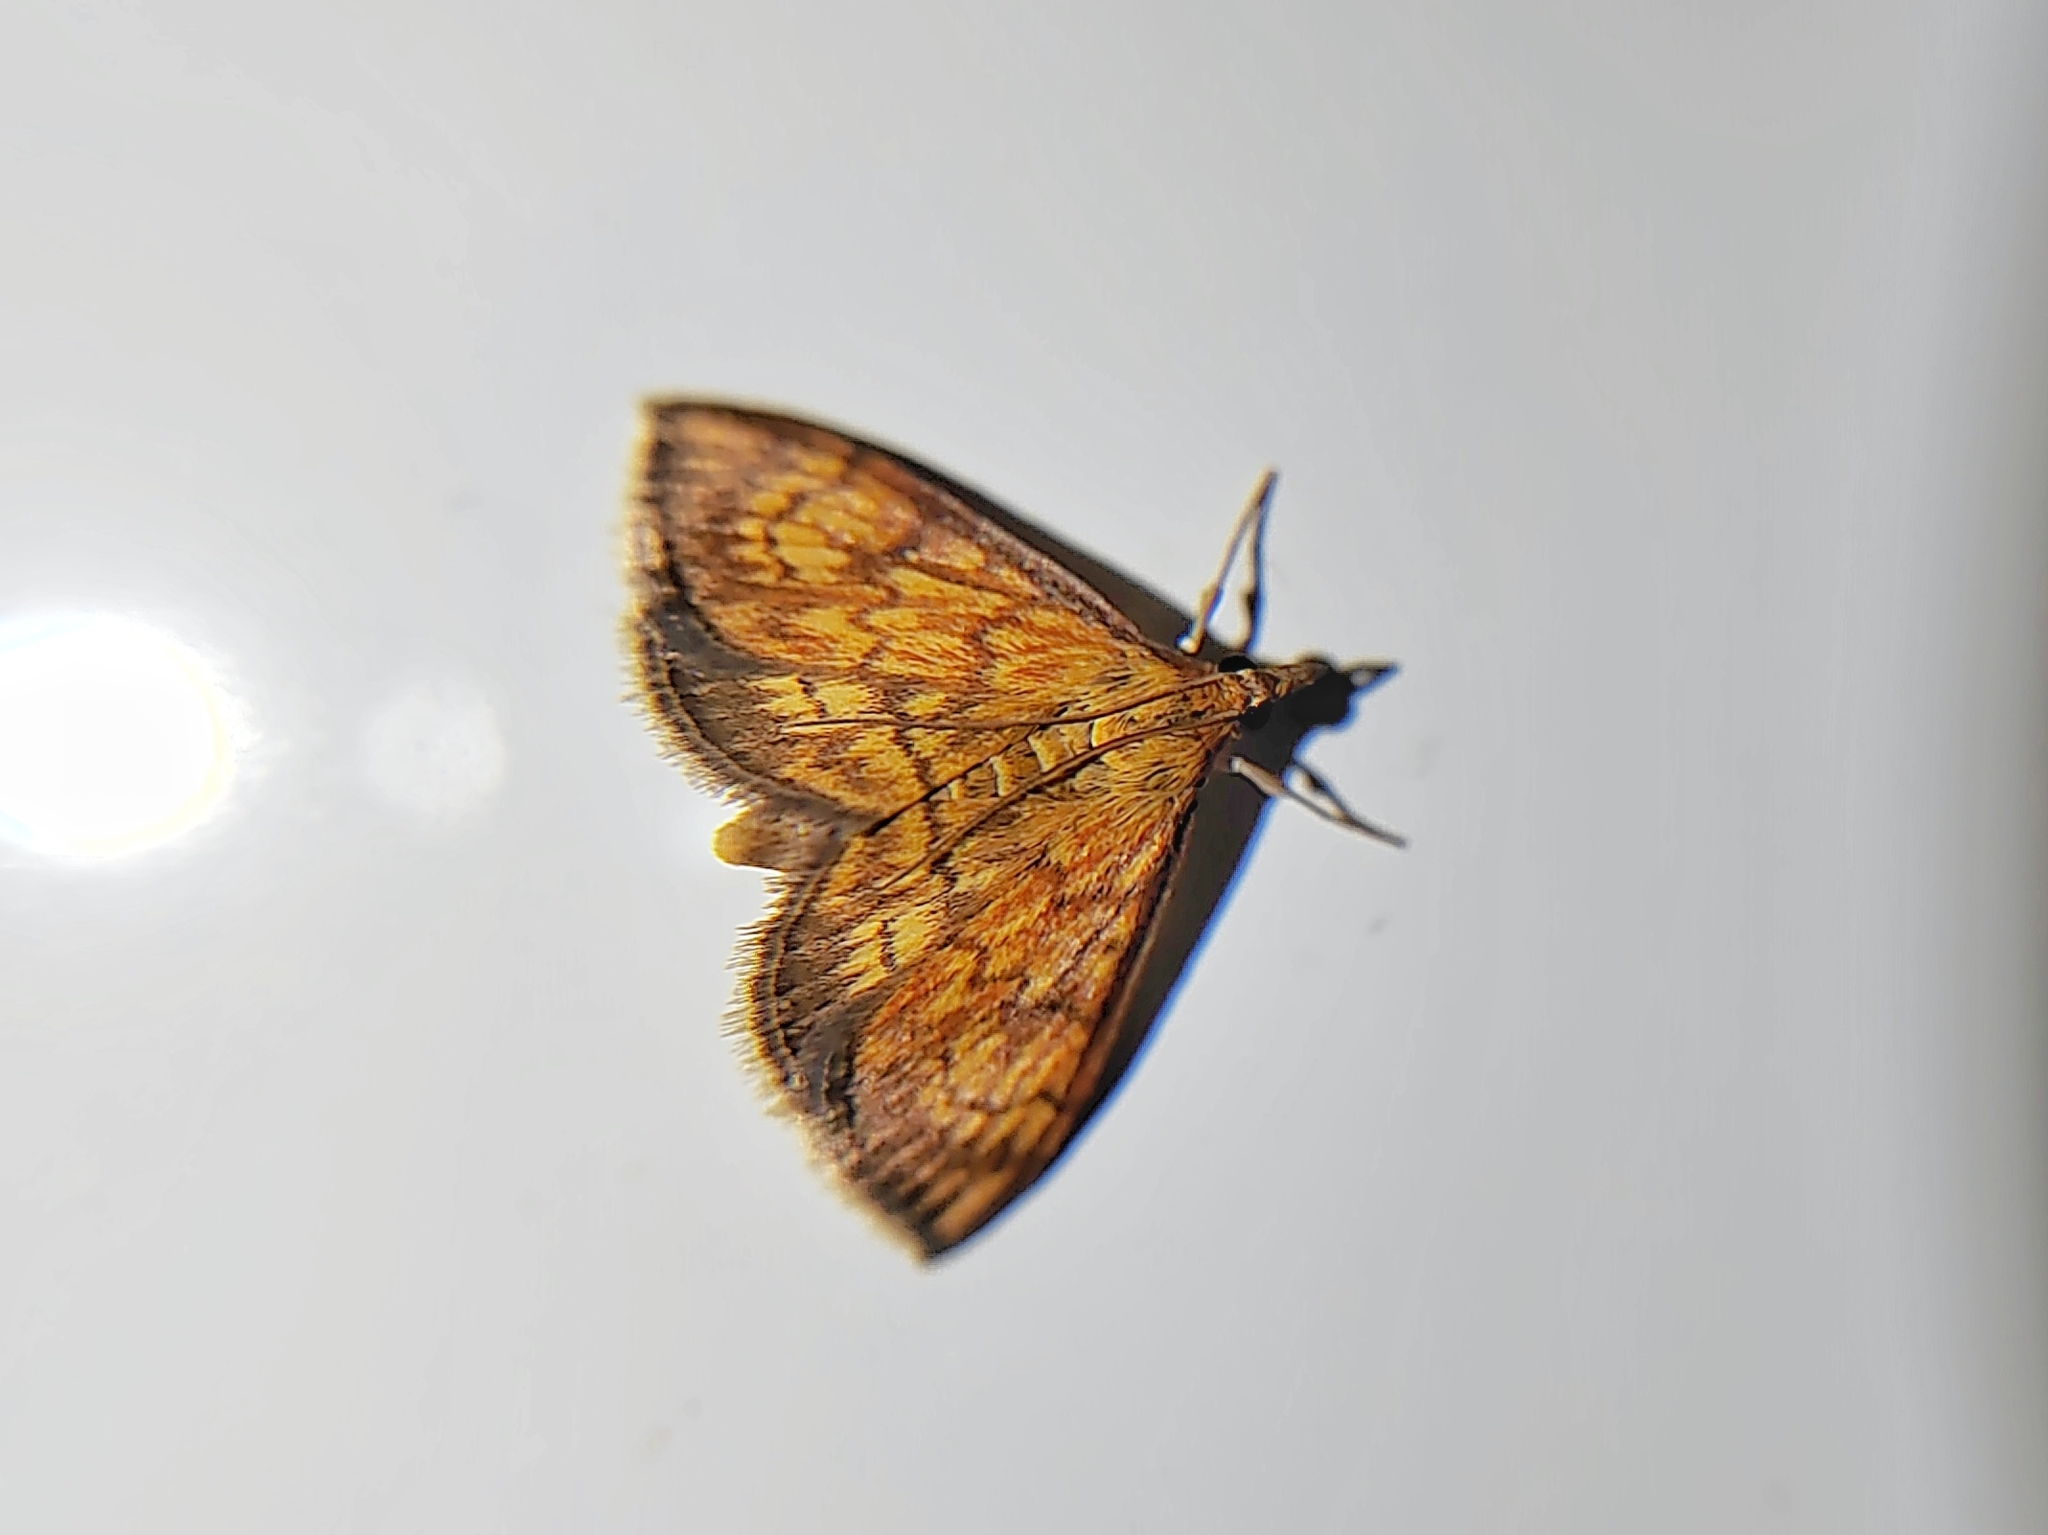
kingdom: Animalia
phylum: Arthropoda
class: Insecta
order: Lepidoptera
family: Crambidae
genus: Ecpyrrhorrhoe
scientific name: Ecpyrrhorrhoe rubiginalis
